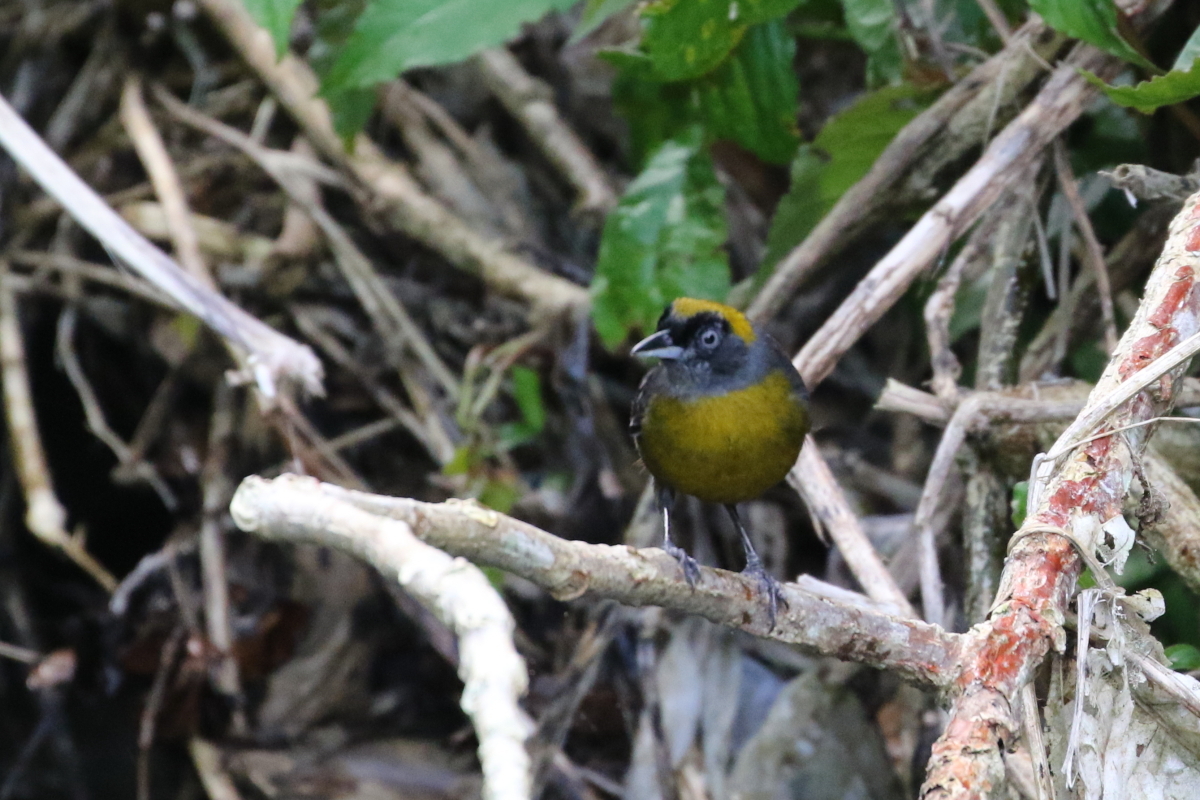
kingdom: Animalia
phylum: Chordata
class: Aves
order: Passeriformes
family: Mitrospingidae
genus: Mitrospingus
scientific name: Mitrospingus cassinii
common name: Dusky-faced tanager
